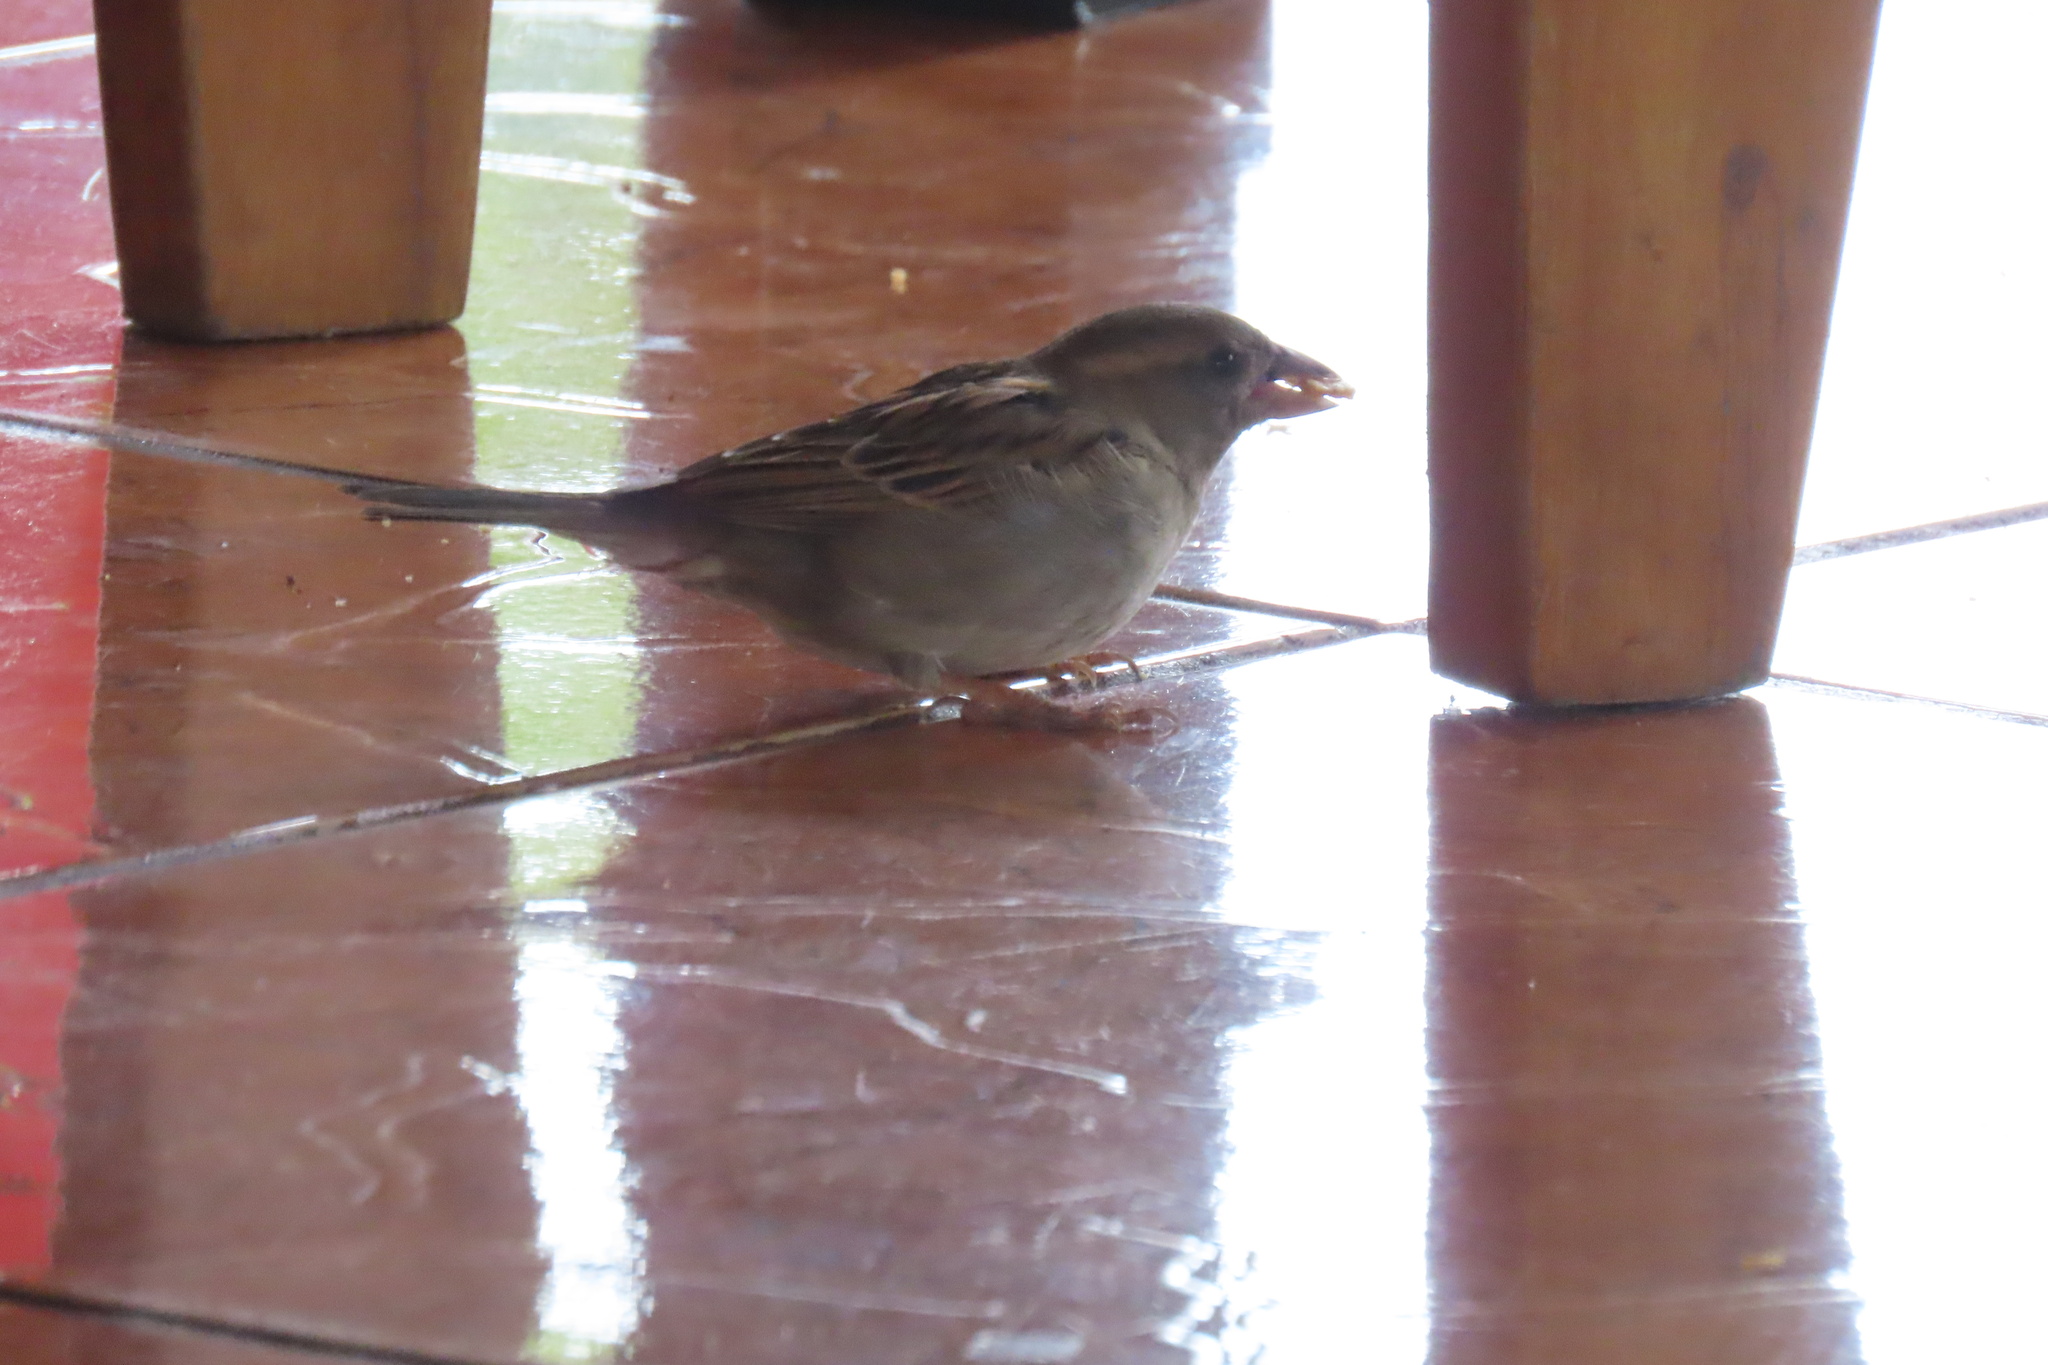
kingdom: Animalia
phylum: Chordata
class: Aves
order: Passeriformes
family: Passeridae
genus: Passer
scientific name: Passer domesticus
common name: House sparrow
